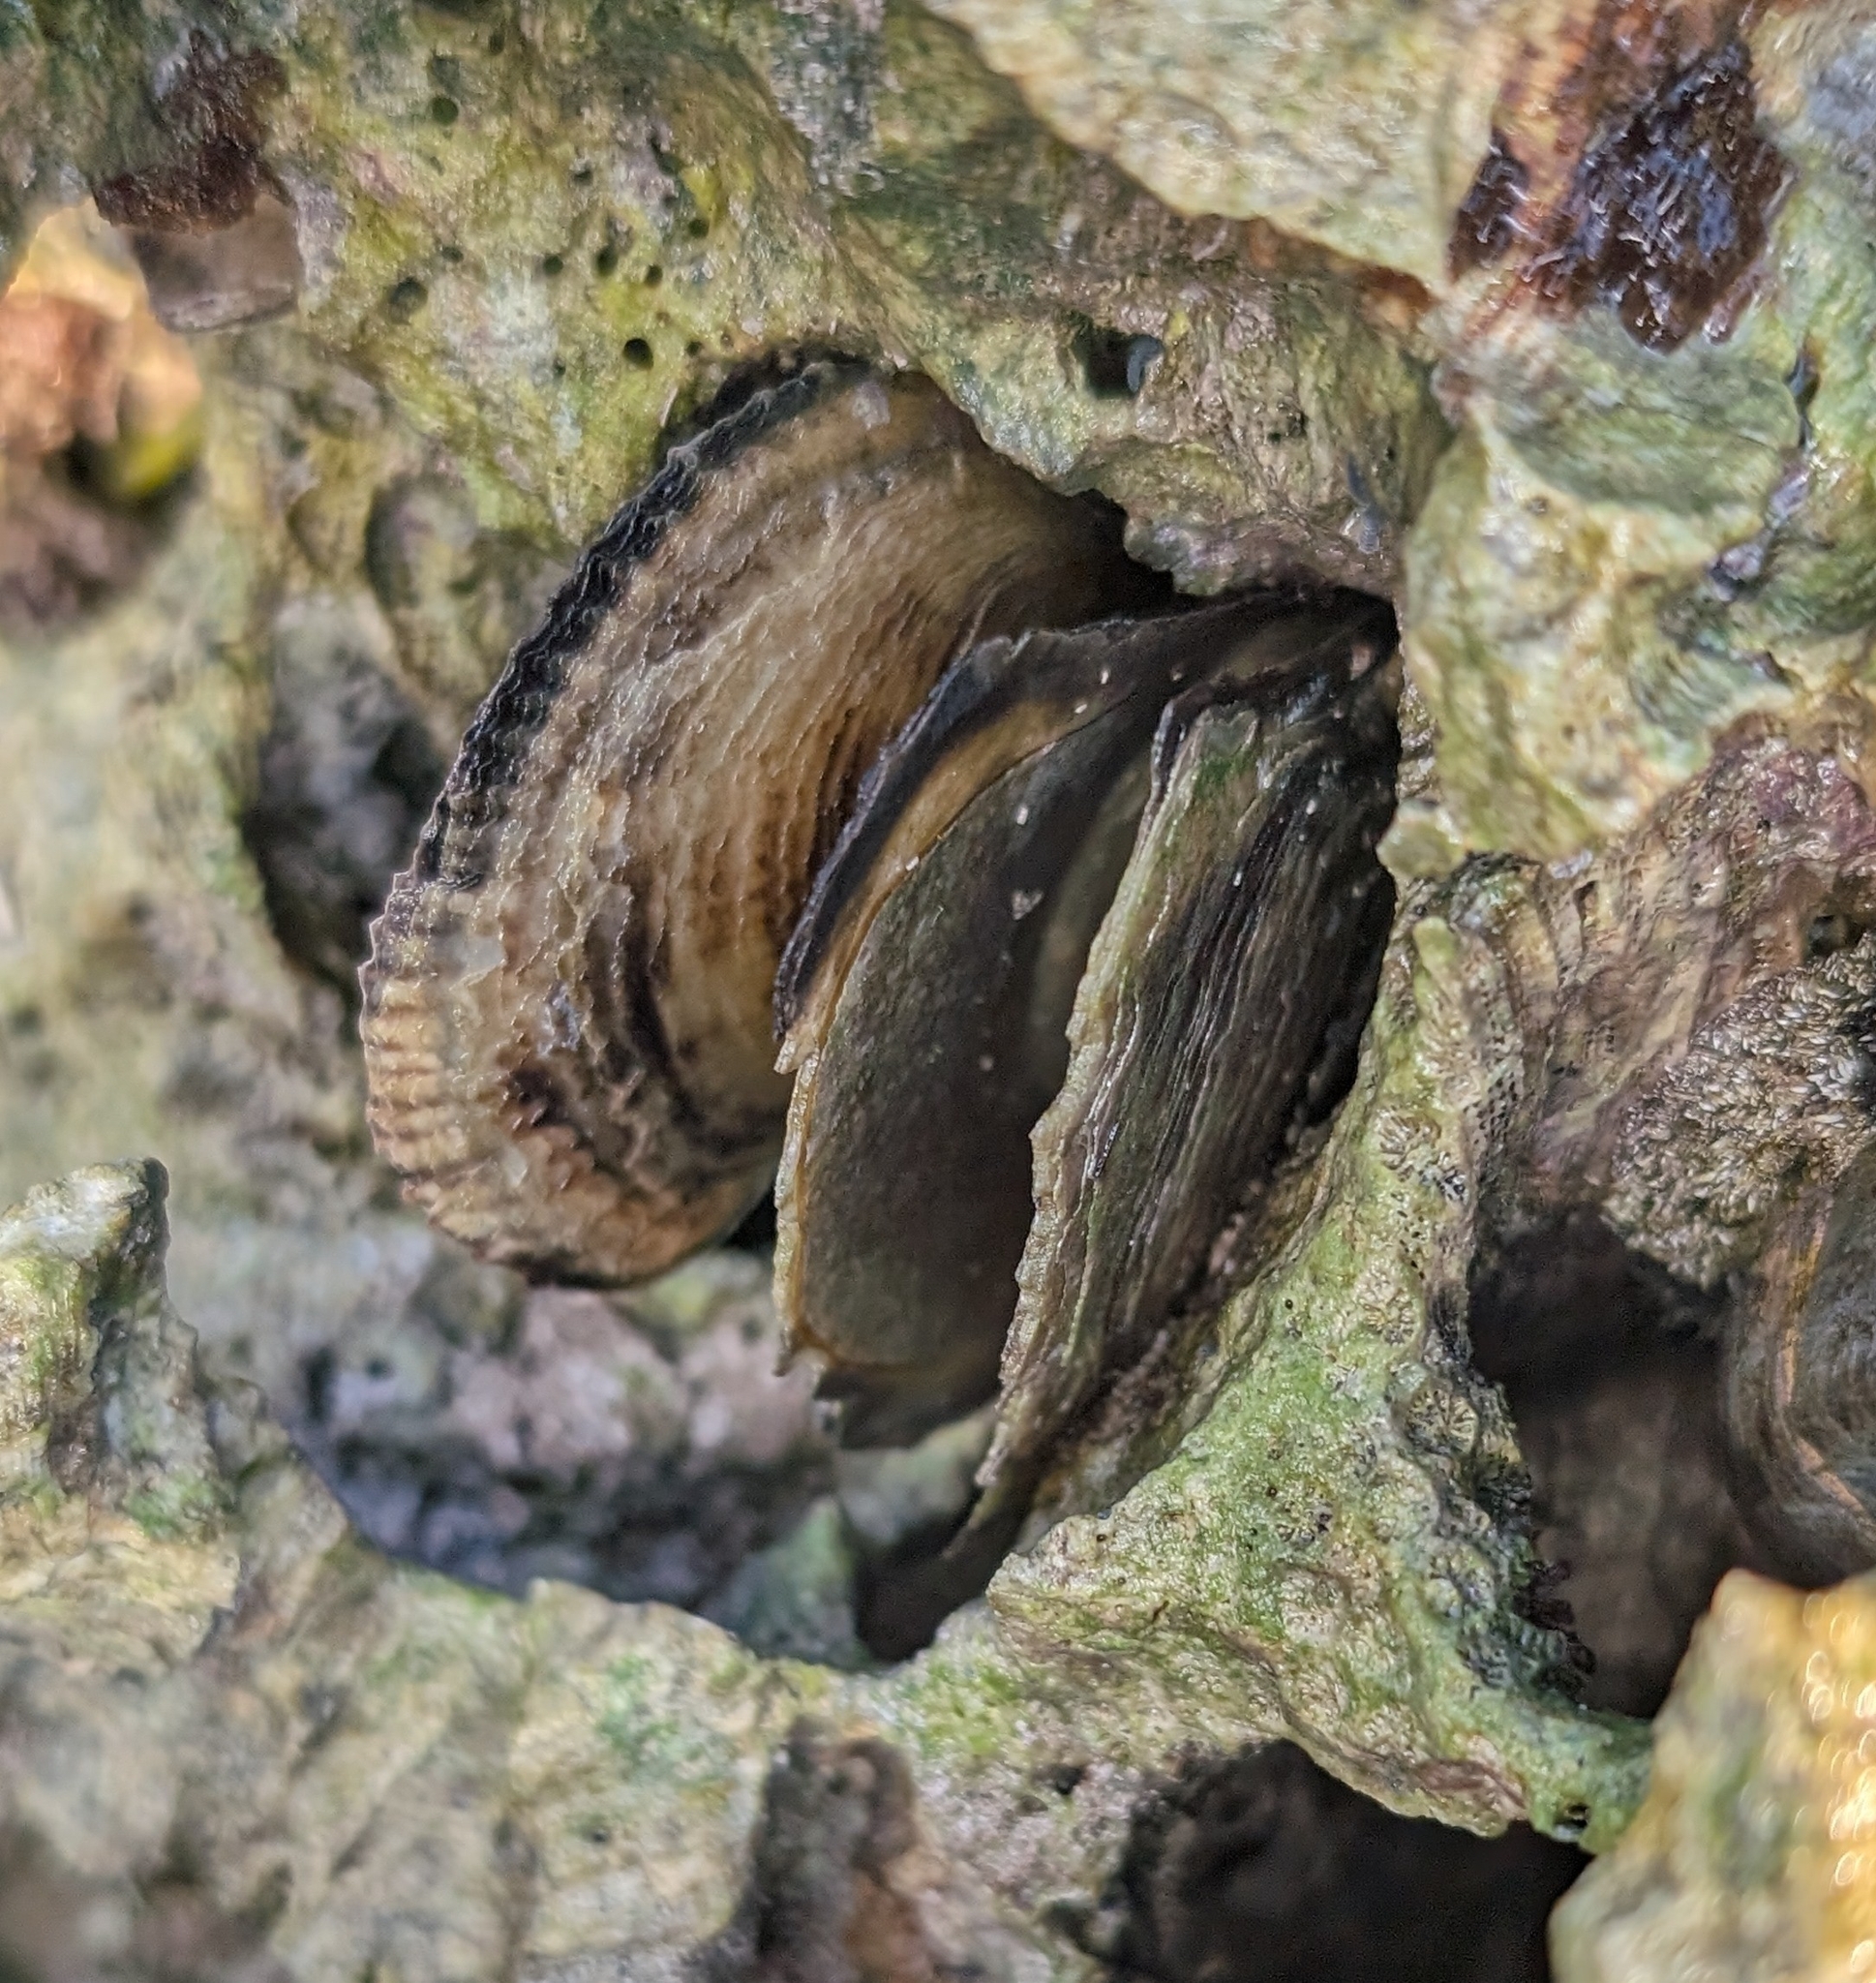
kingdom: Animalia
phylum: Mollusca
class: Bivalvia
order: Ostreida
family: Isognomonidae
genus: Isognomon
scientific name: Isognomon alatus
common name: Flat tree-oyster
